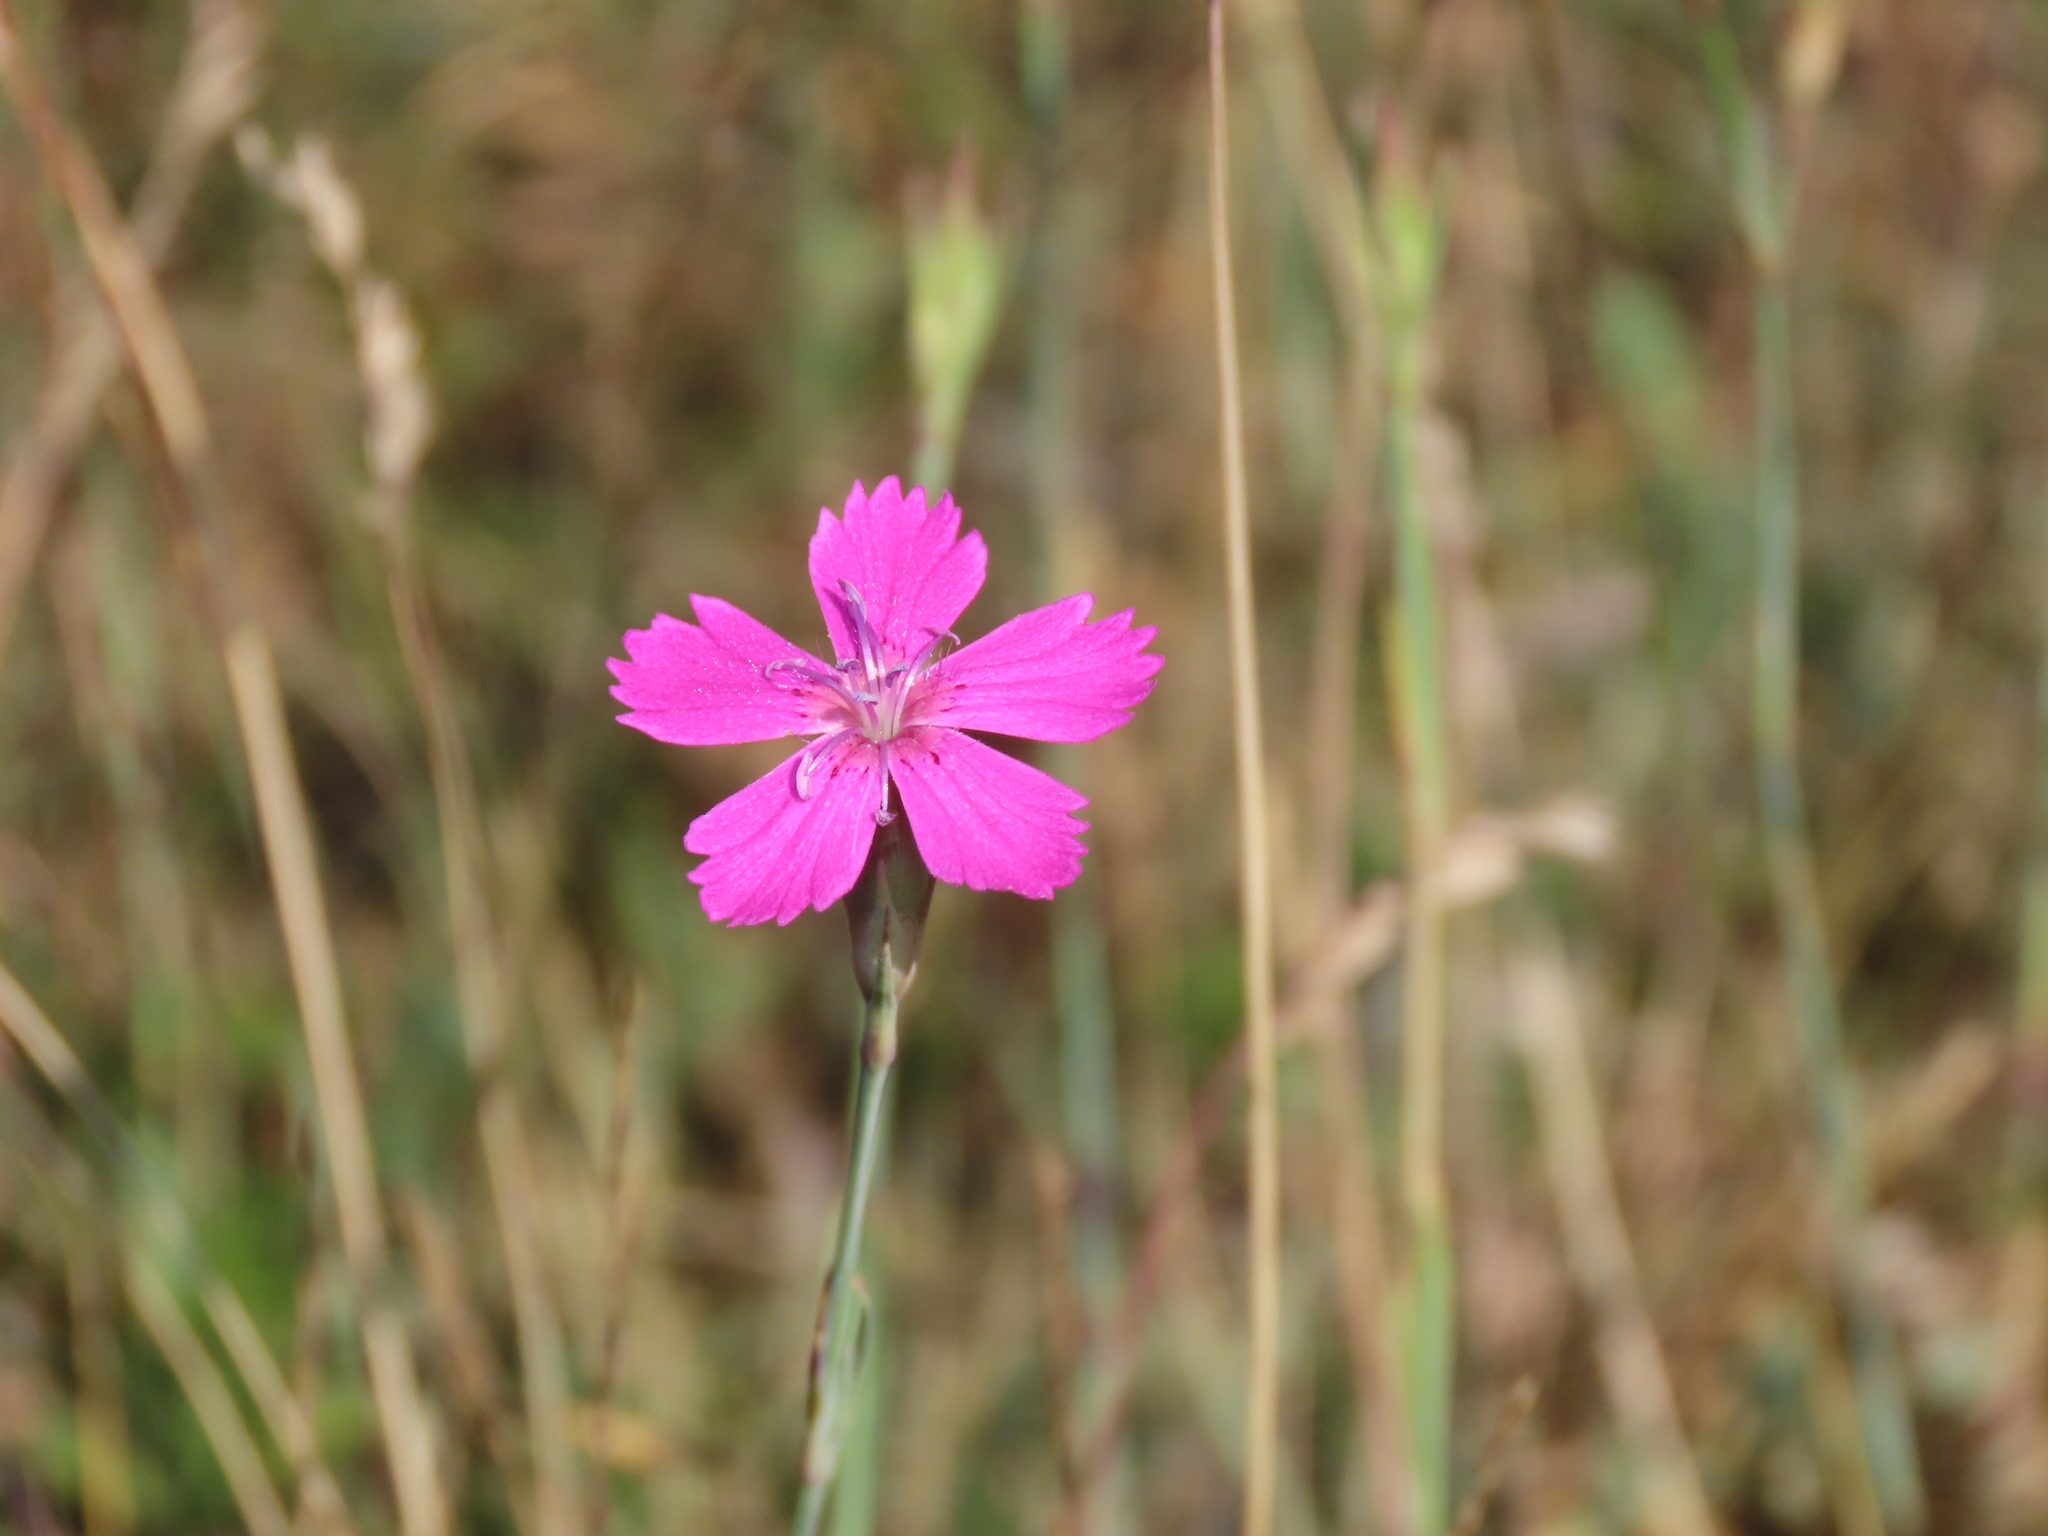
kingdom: Plantae
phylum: Tracheophyta
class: Magnoliopsida
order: Caryophyllales
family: Caryophyllaceae
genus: Dianthus
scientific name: Dianthus deltoides
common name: Maiden pink
